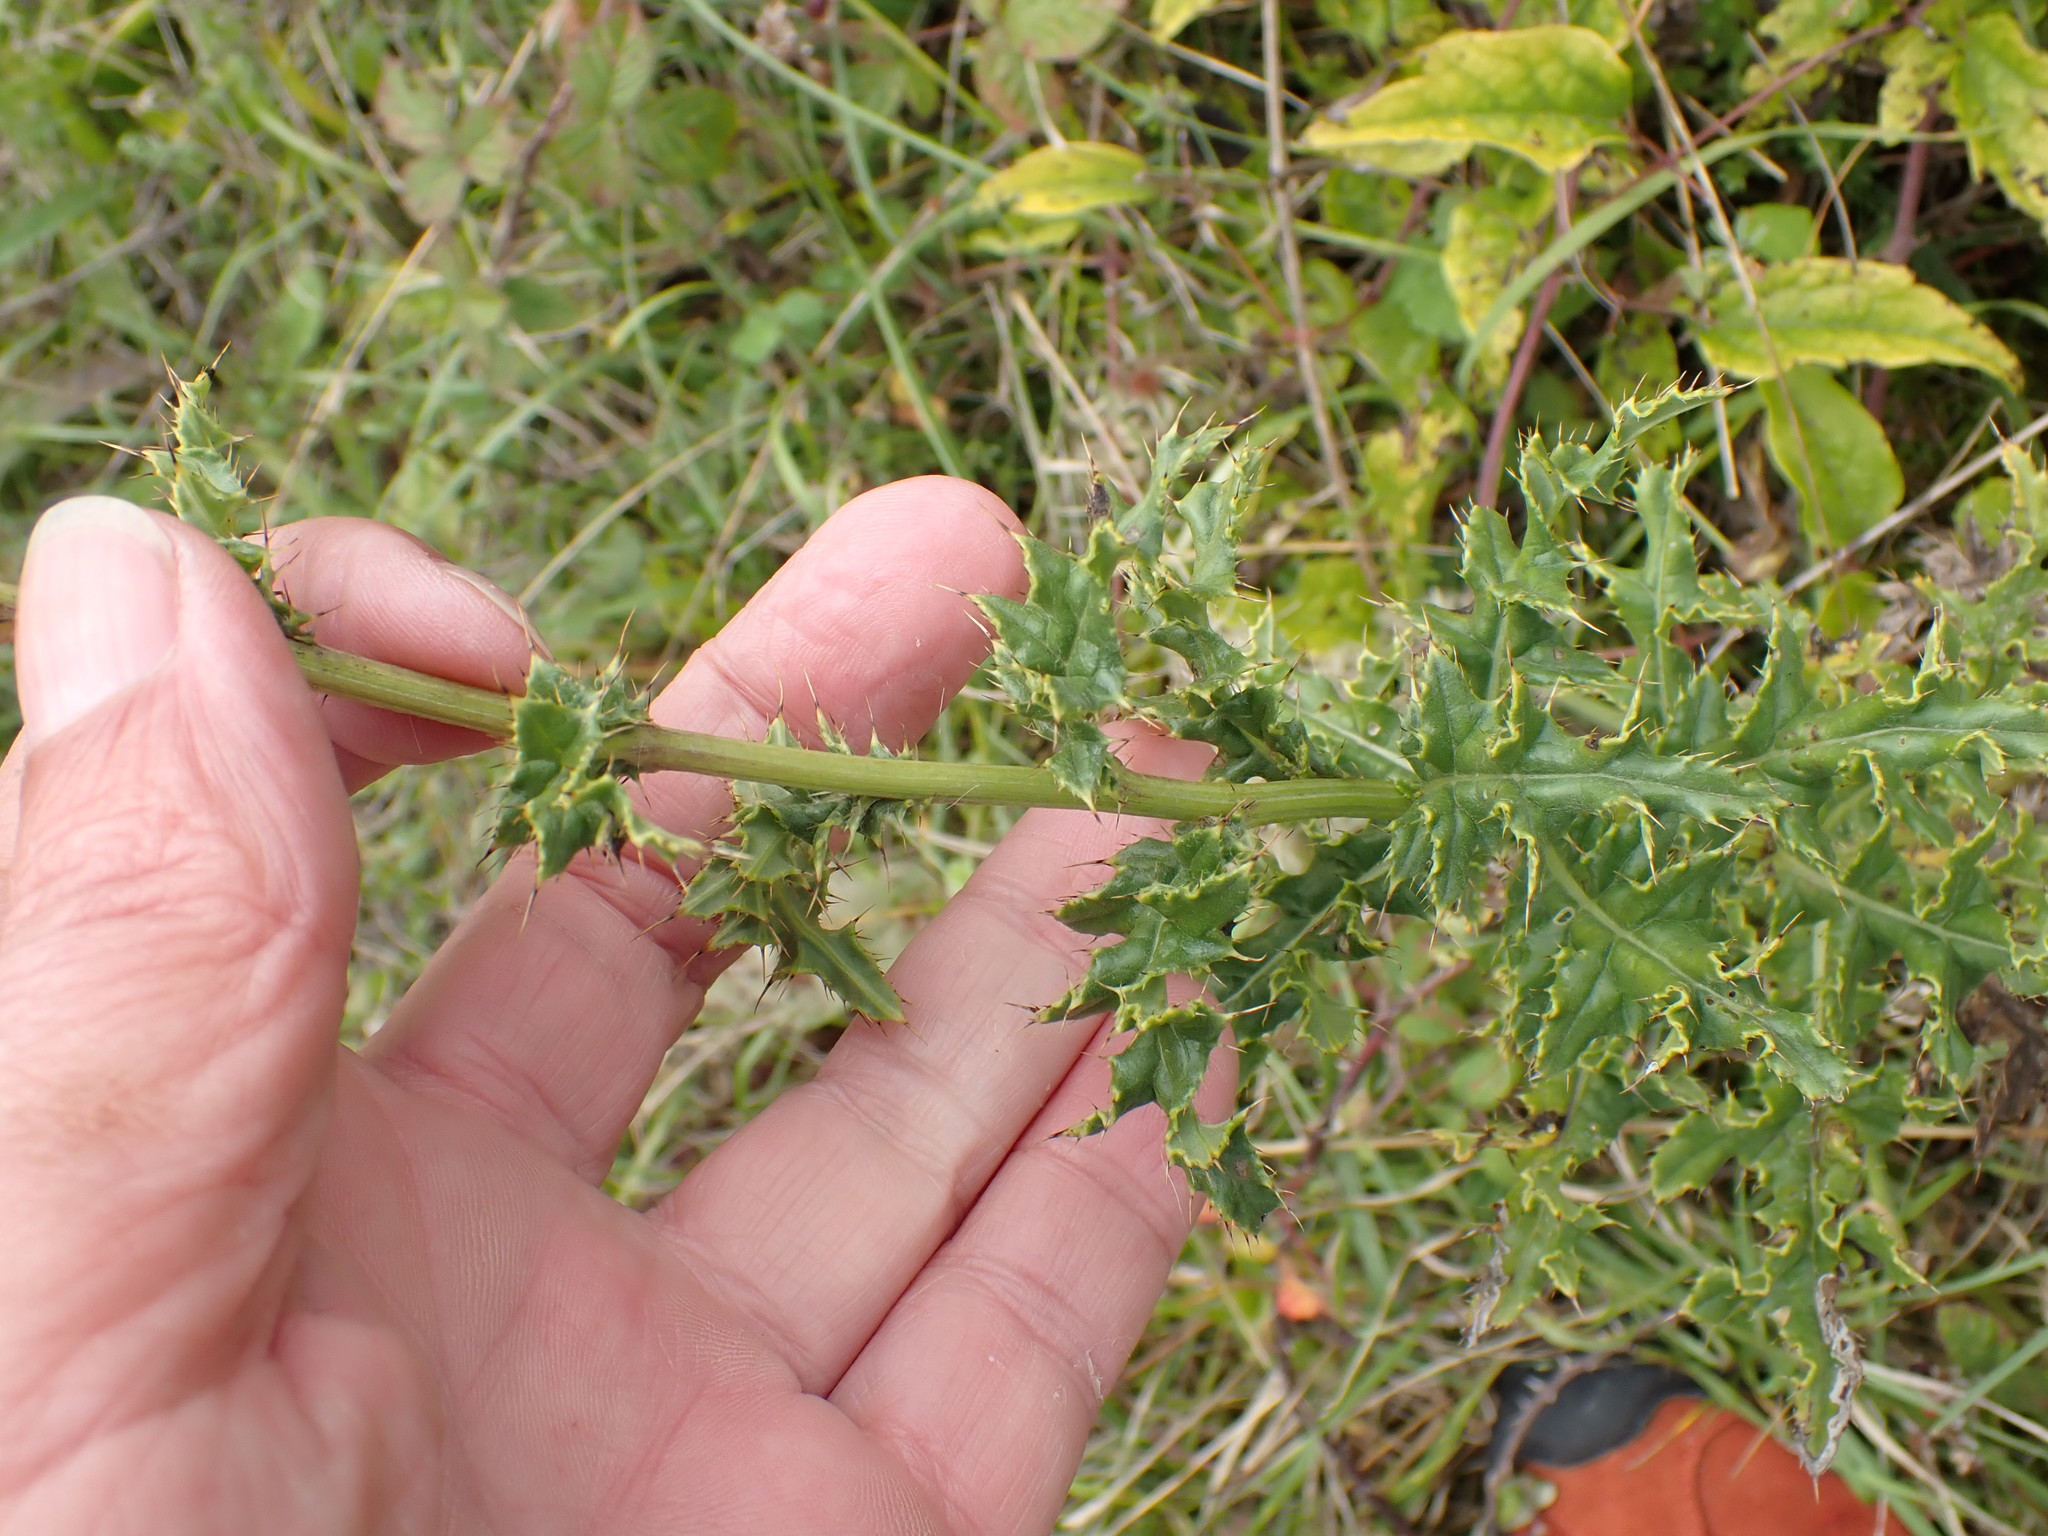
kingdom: Plantae
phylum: Tracheophyta
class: Magnoliopsida
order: Asterales
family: Asteraceae
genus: Cirsium
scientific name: Cirsium arvense
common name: Creeping thistle
